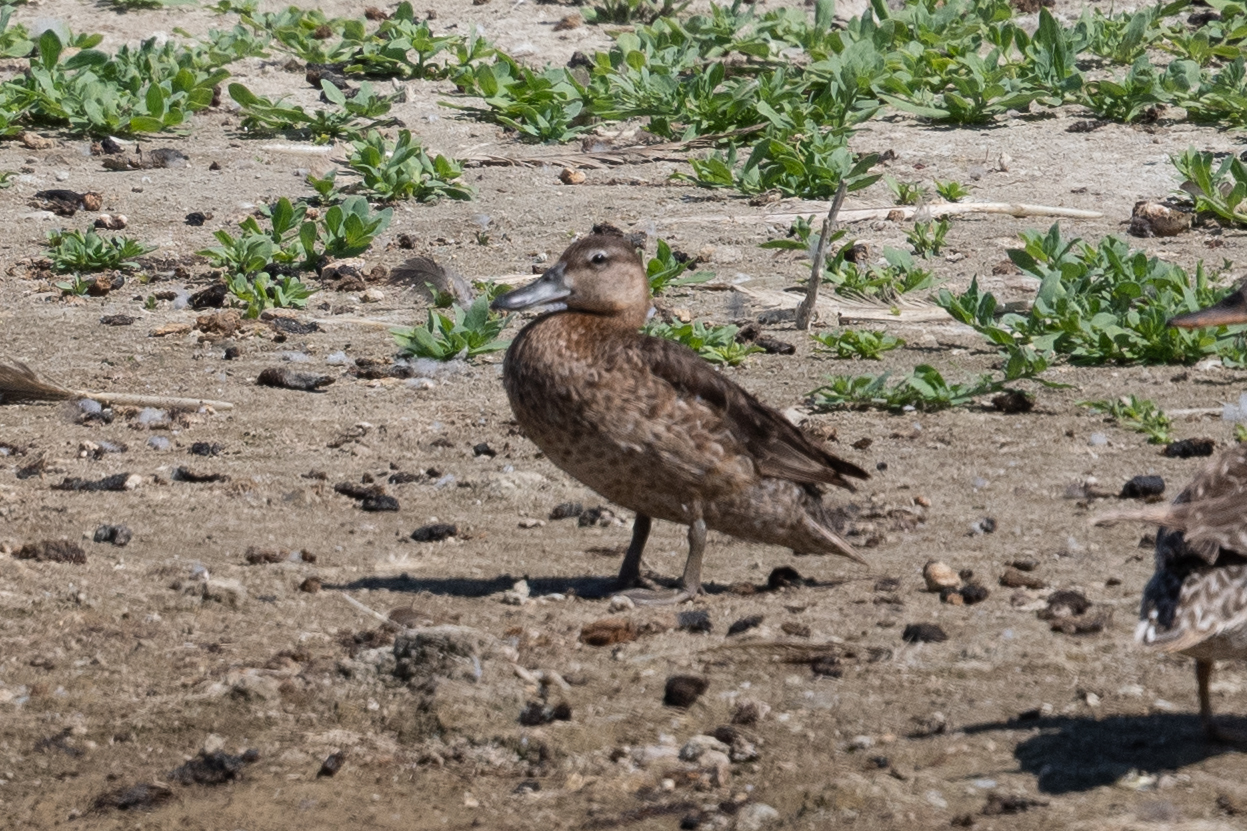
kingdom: Animalia
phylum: Chordata
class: Aves
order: Anseriformes
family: Anatidae
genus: Spatula
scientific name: Spatula cyanoptera
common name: Cinnamon teal
